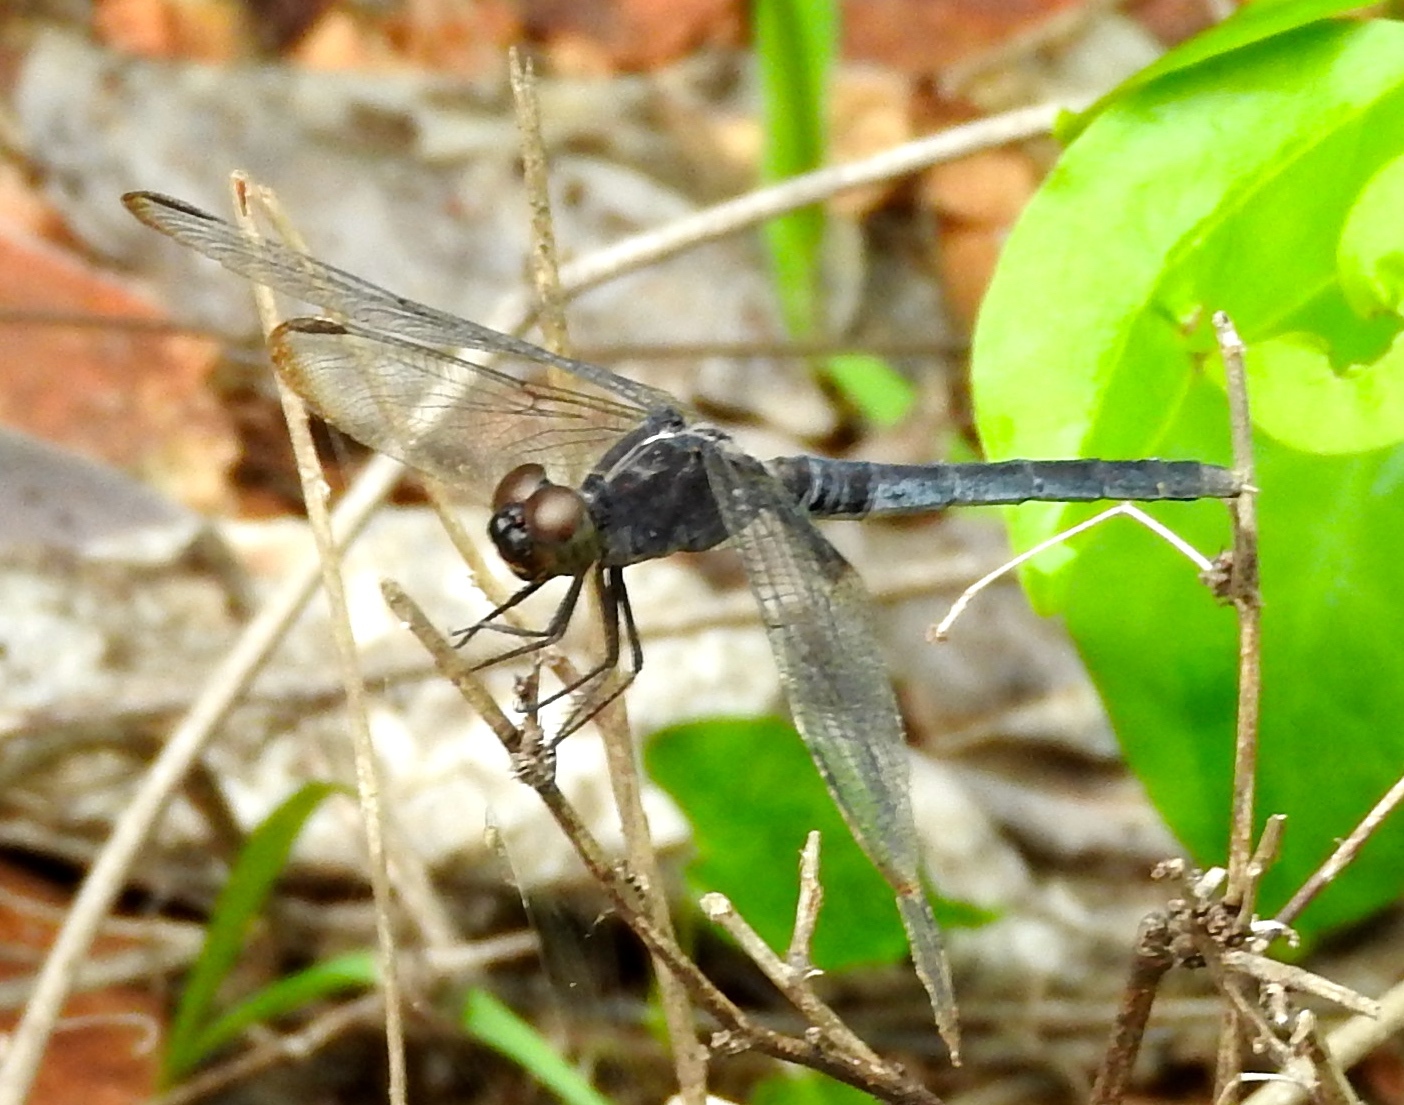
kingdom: Animalia
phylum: Arthropoda
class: Insecta
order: Odonata
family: Libellulidae
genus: Erythrodiplax
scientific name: Erythrodiplax funerea
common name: Black-winged dragonlet
